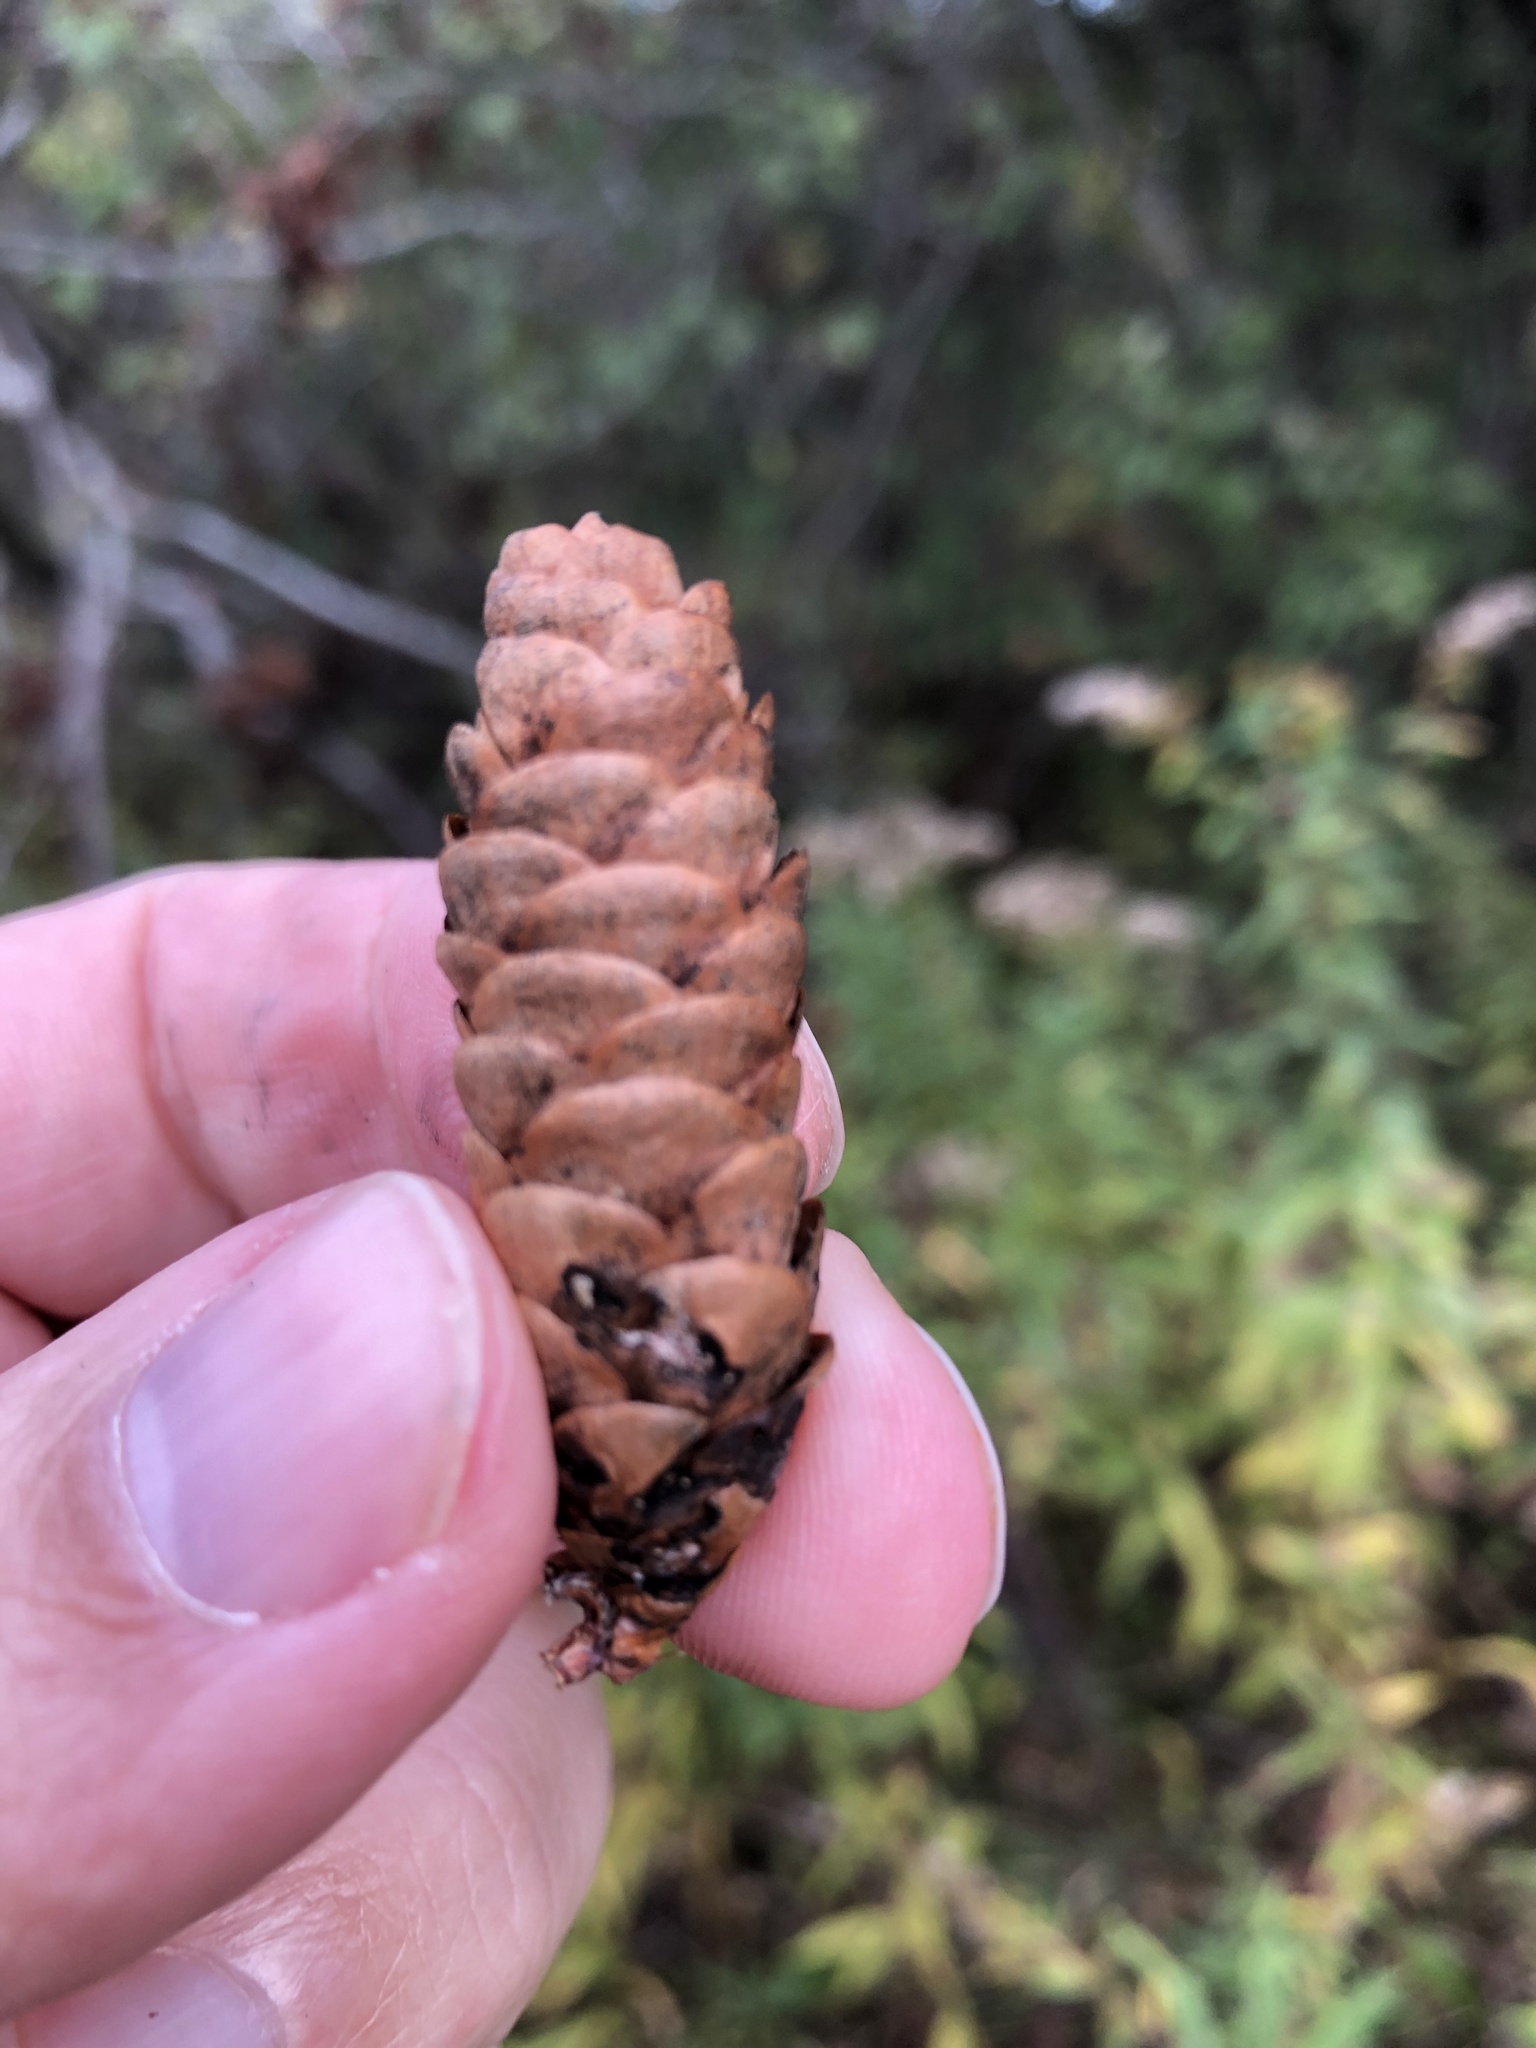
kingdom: Plantae
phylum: Tracheophyta
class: Pinopsida
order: Pinales
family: Pinaceae
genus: Picea
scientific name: Picea glauca
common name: White spruce
